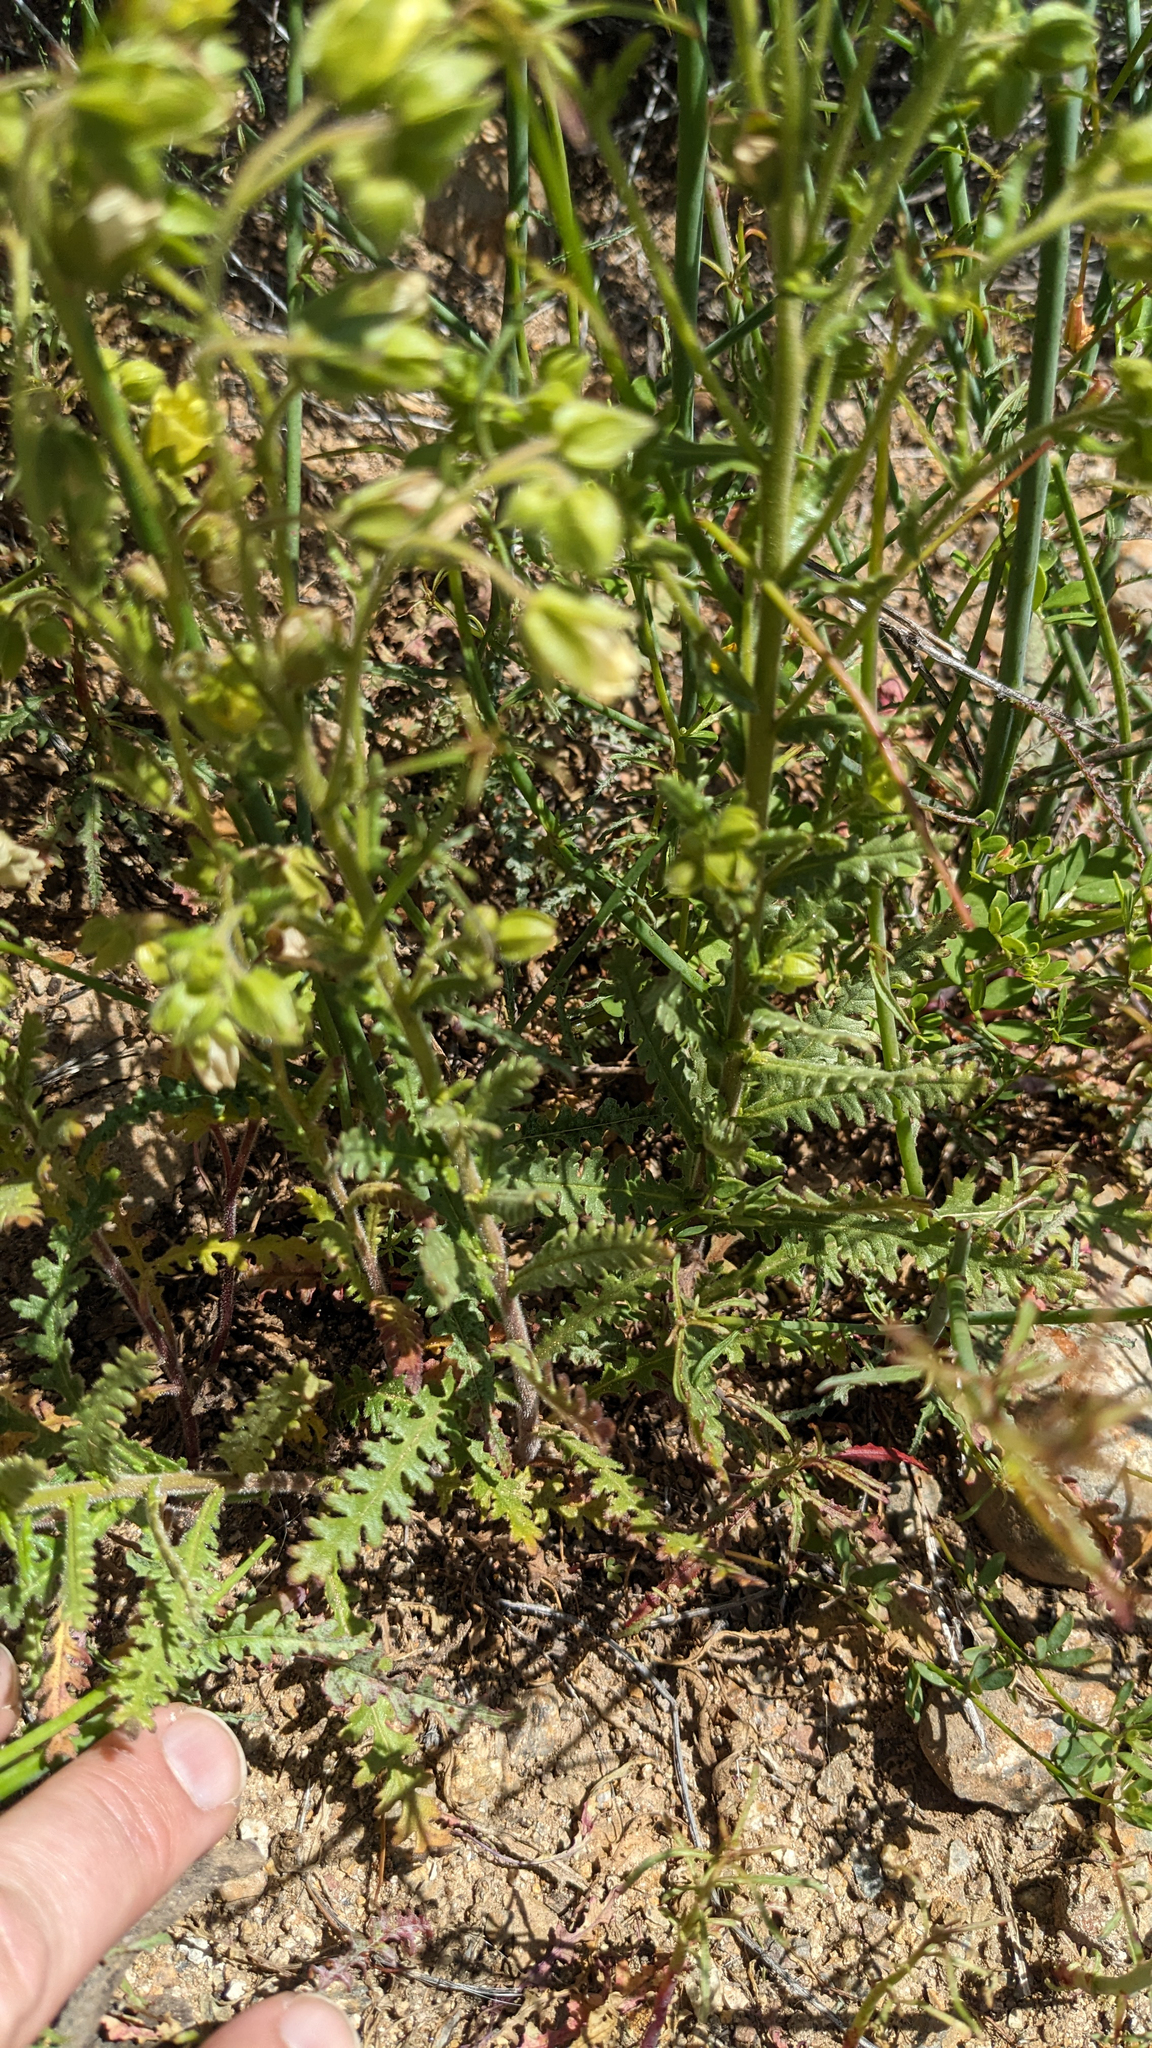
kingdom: Plantae
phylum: Tracheophyta
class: Magnoliopsida
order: Boraginales
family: Hydrophyllaceae
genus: Emmenanthe
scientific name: Emmenanthe penduliflora
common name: Whispering-bells
